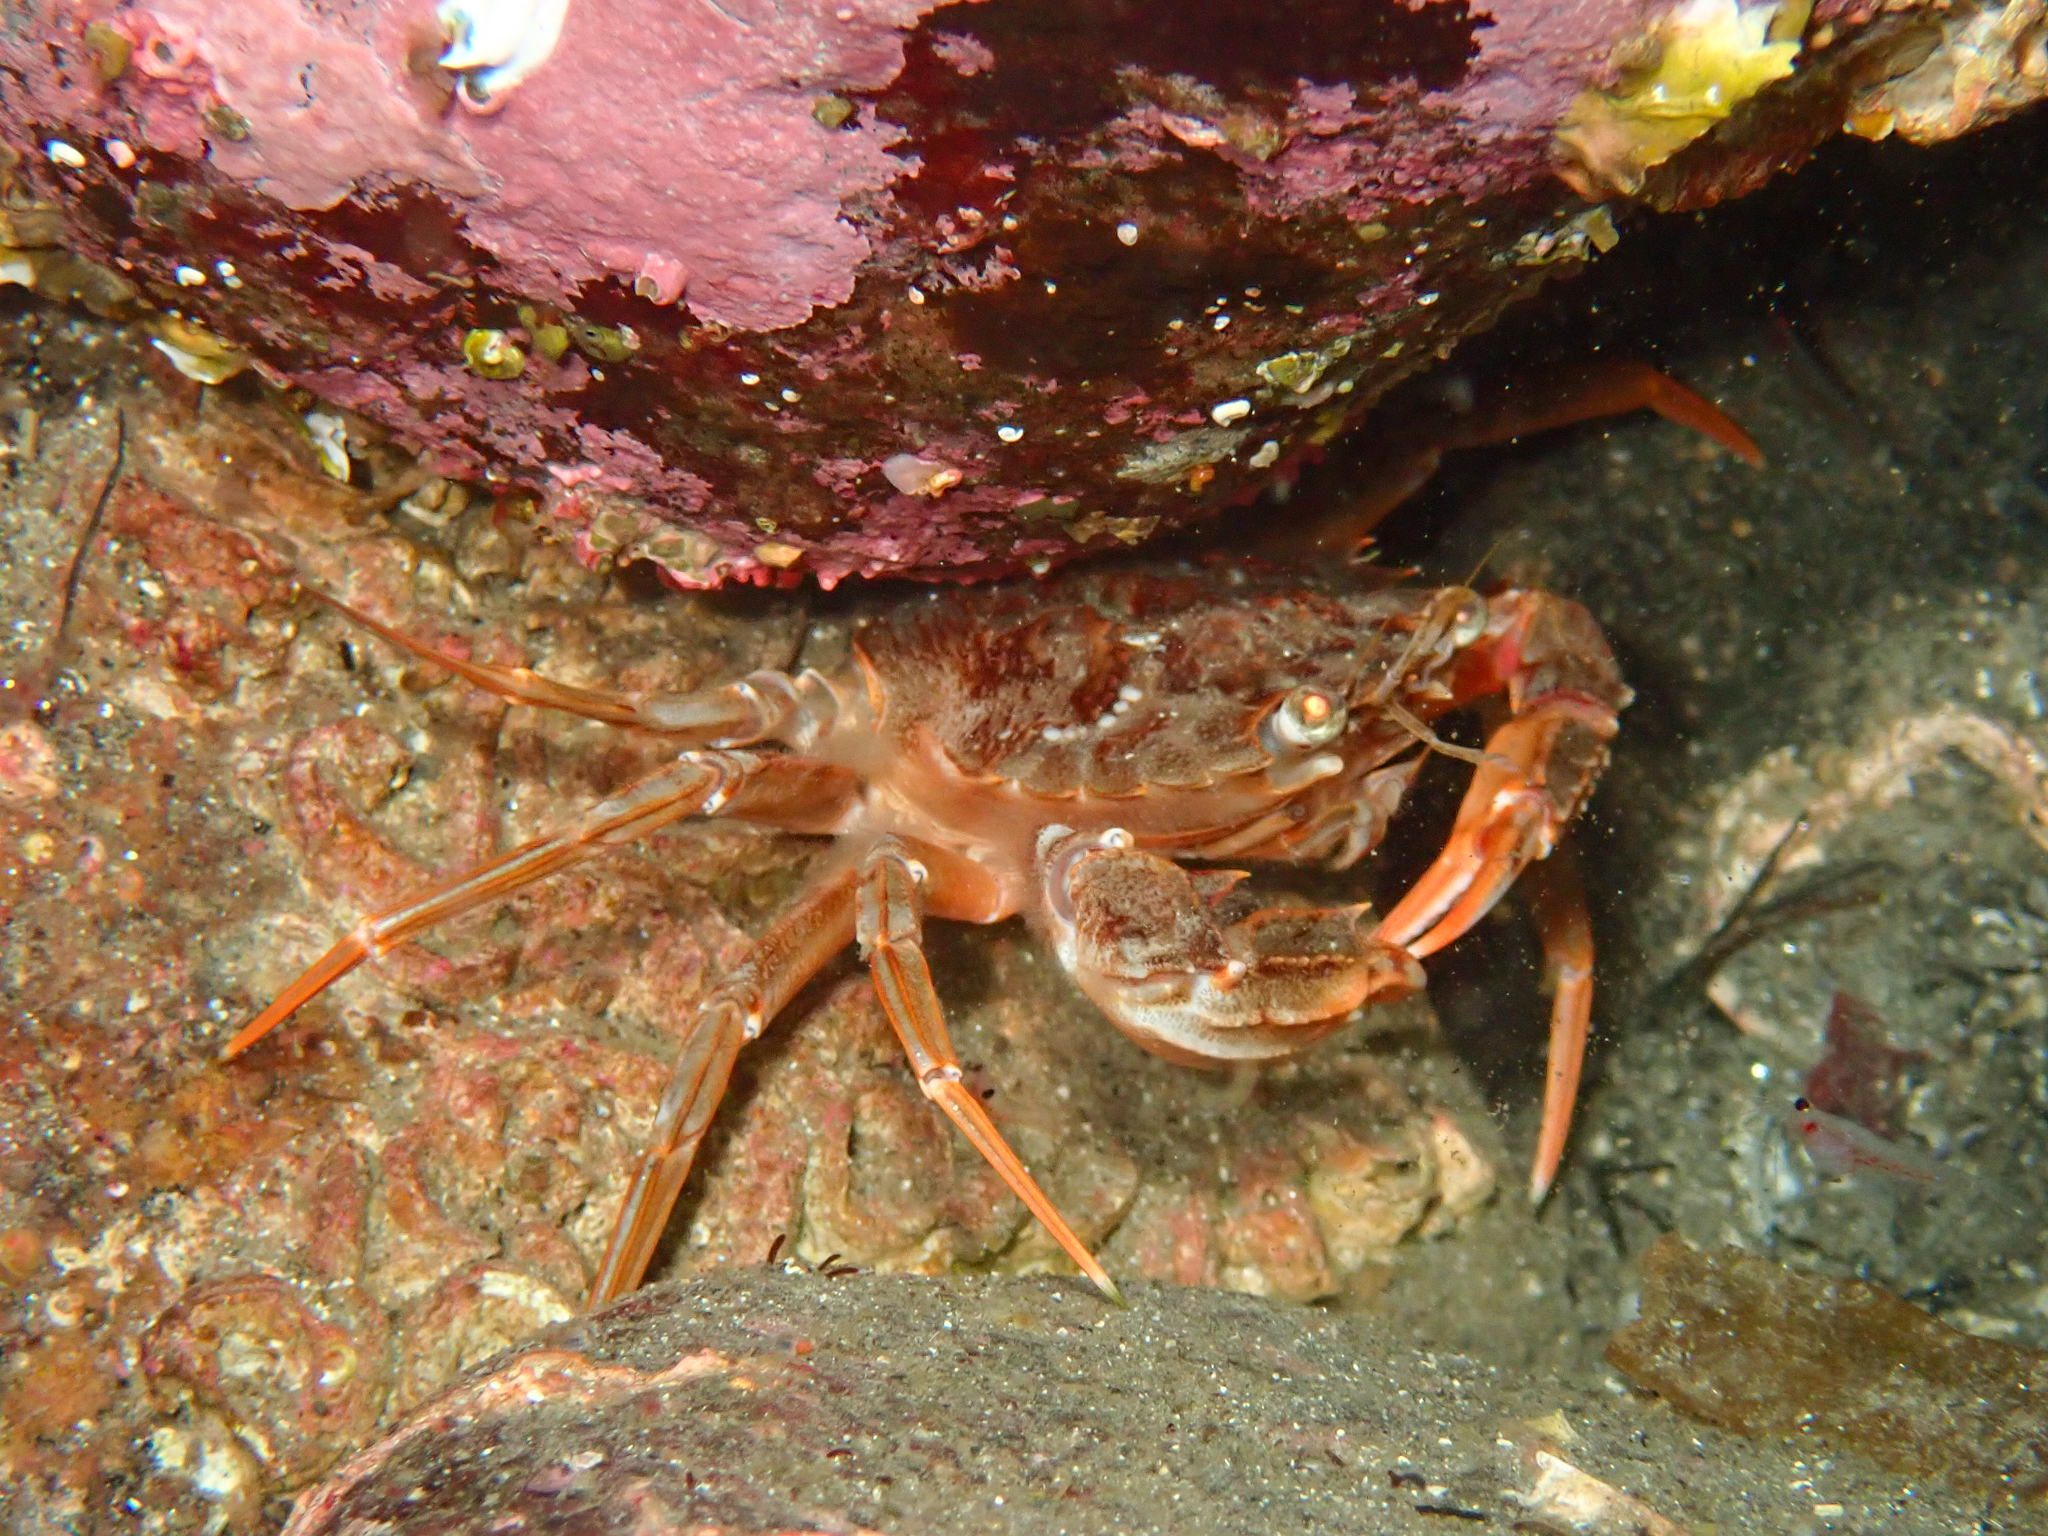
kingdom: Animalia
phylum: Arthropoda
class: Malacostraca
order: Decapoda
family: Polybiidae
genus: Liocarcinus
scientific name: Liocarcinus depurator
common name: Cleanser crab
